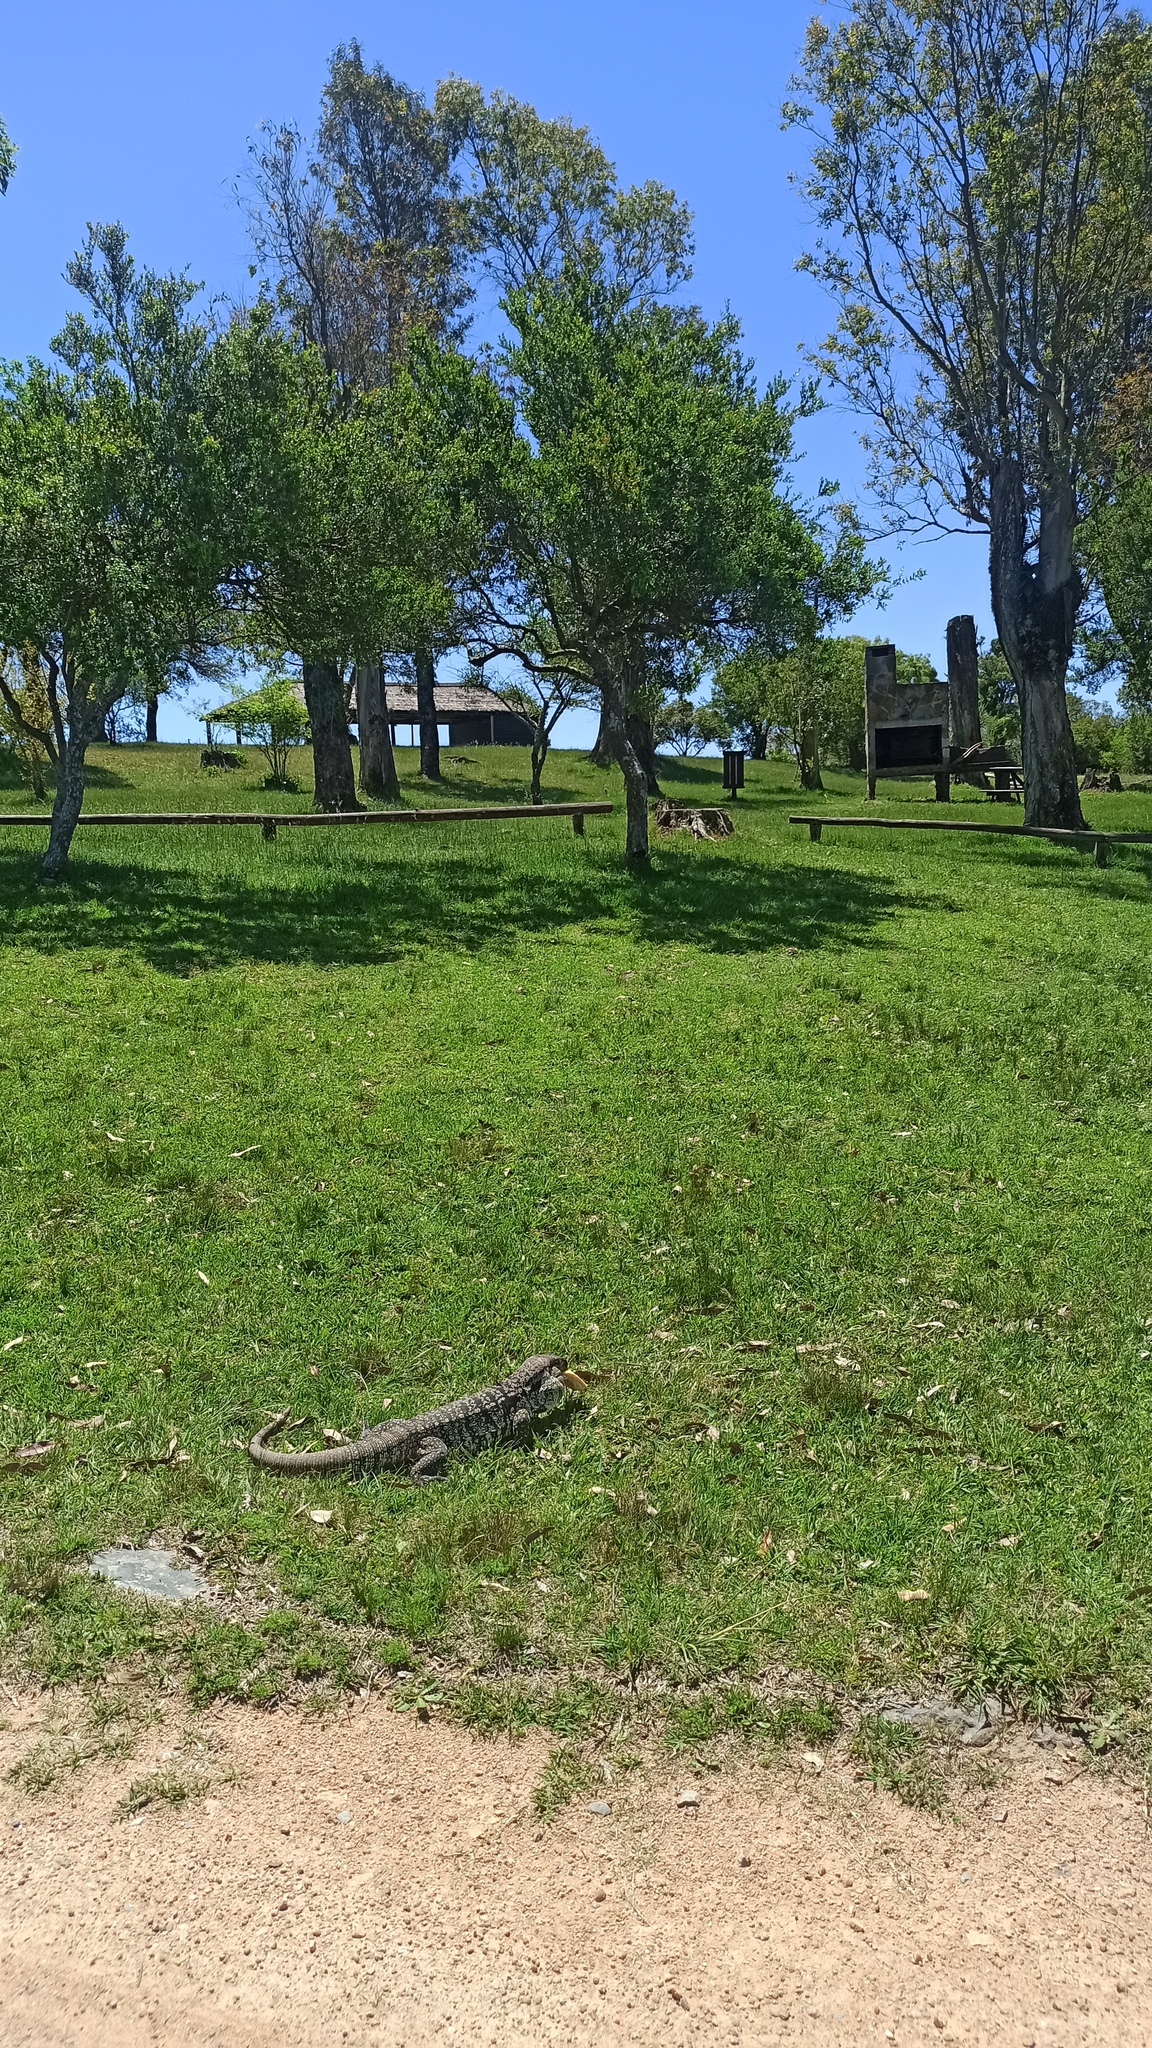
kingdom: Animalia
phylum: Chordata
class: Squamata
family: Teiidae
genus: Salvator
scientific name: Salvator merianae
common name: Argentine black and white tegu
